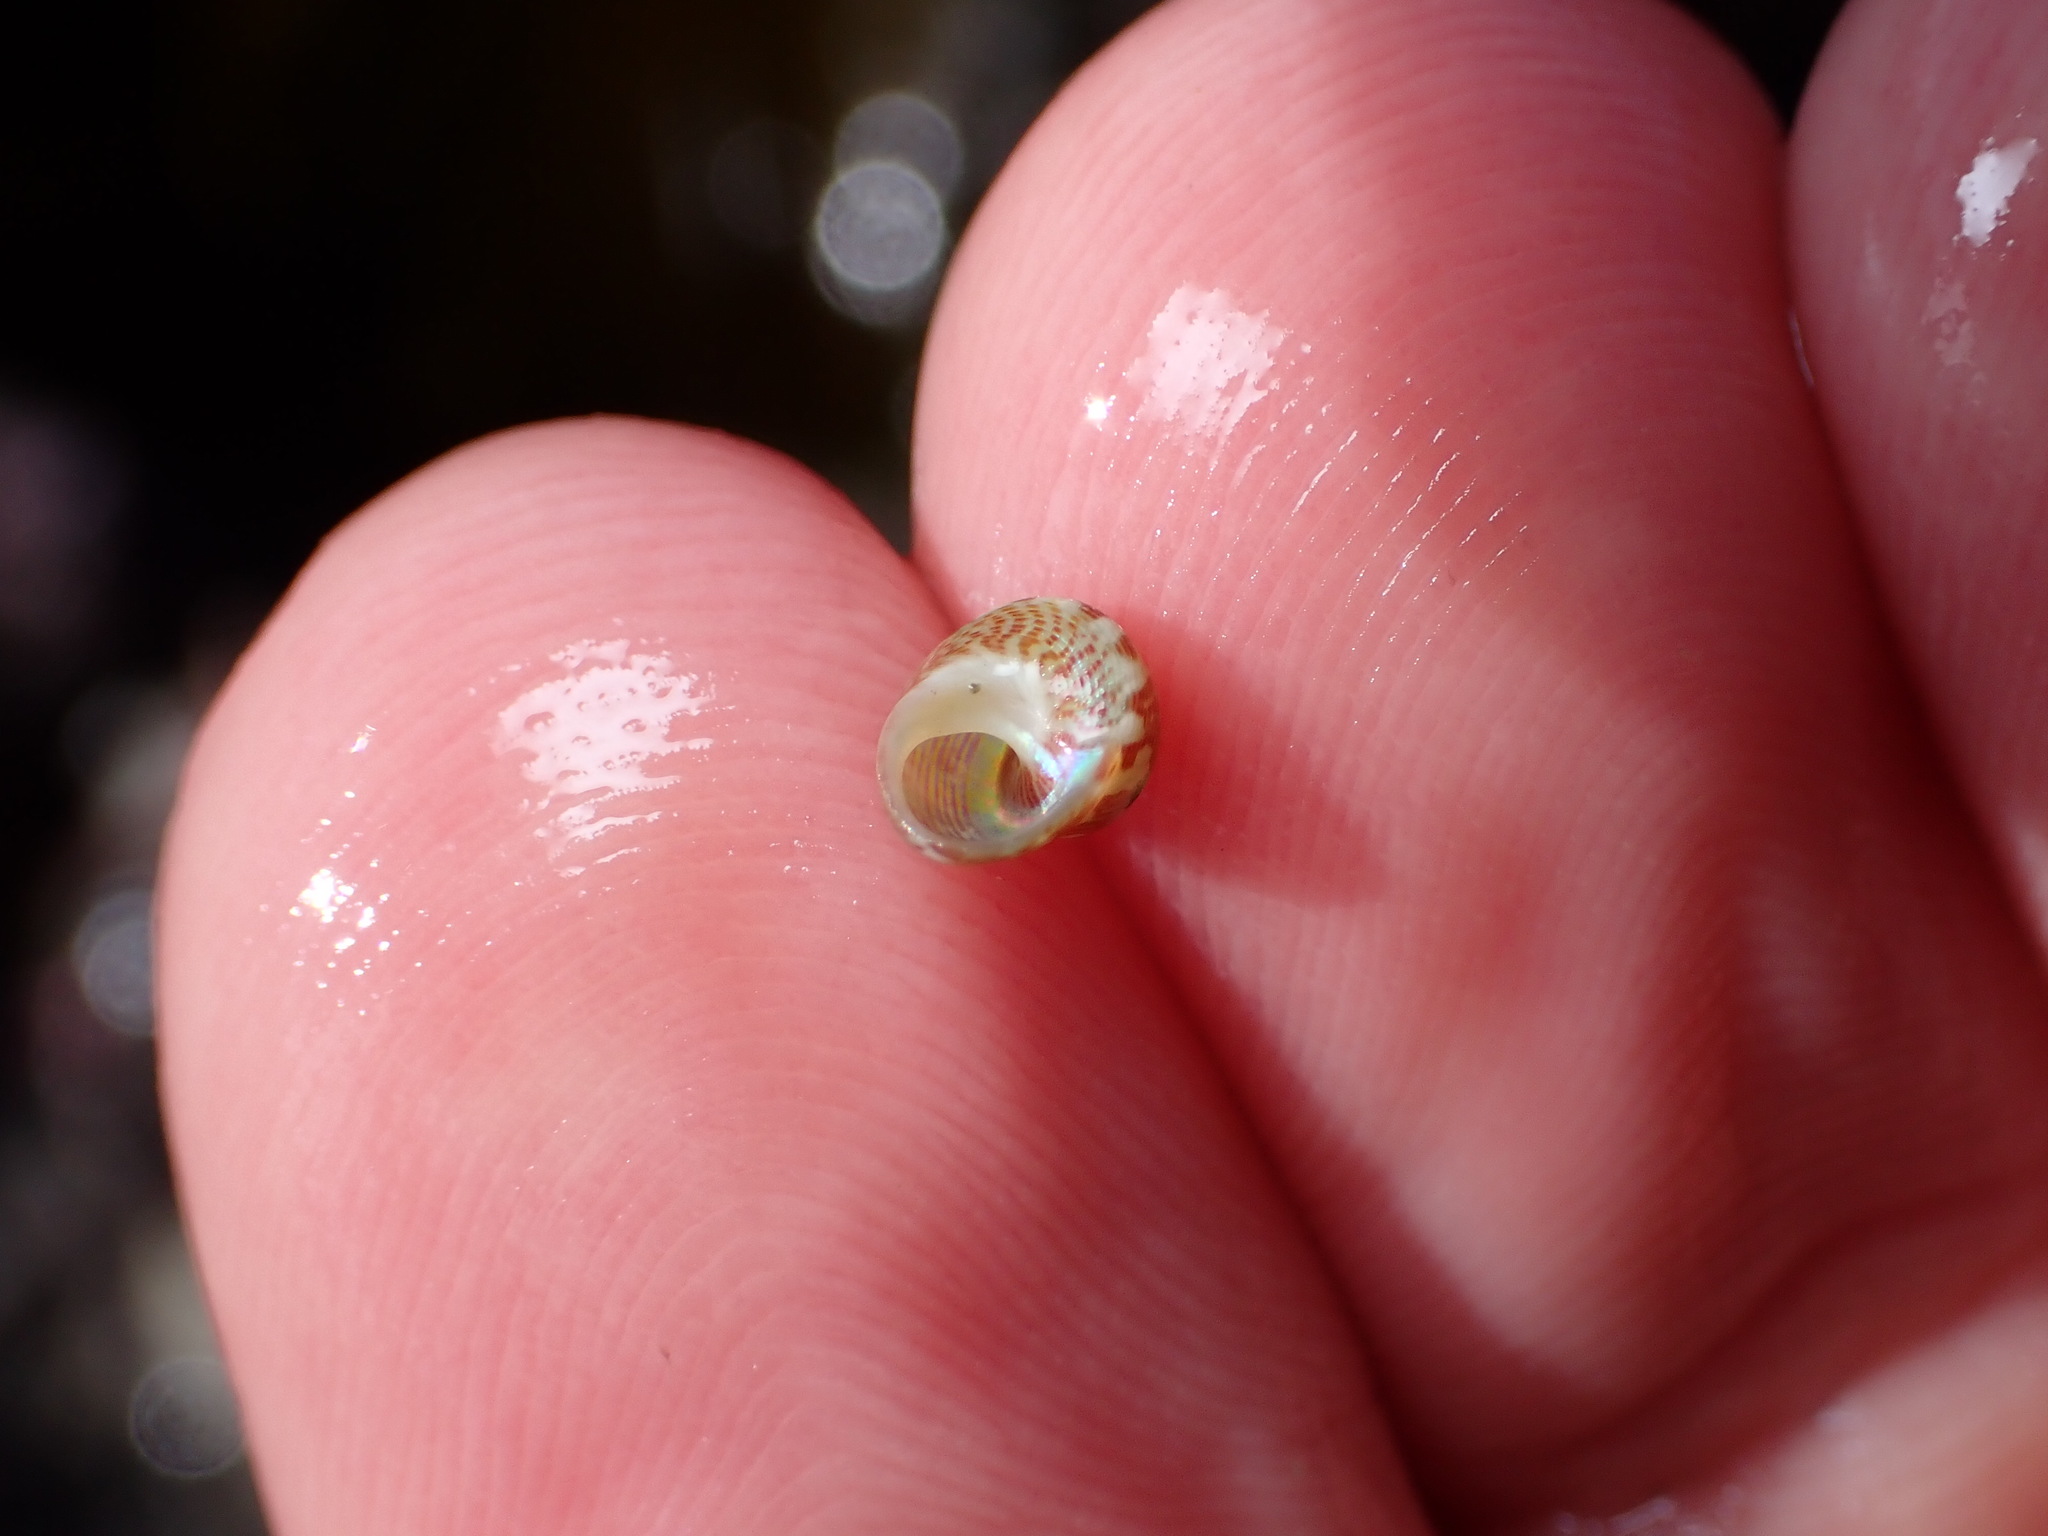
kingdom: Animalia
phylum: Mollusca
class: Gastropoda
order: Trochida
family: Trochidae
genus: Cantharidus
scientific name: Cantharidus dilatatus
